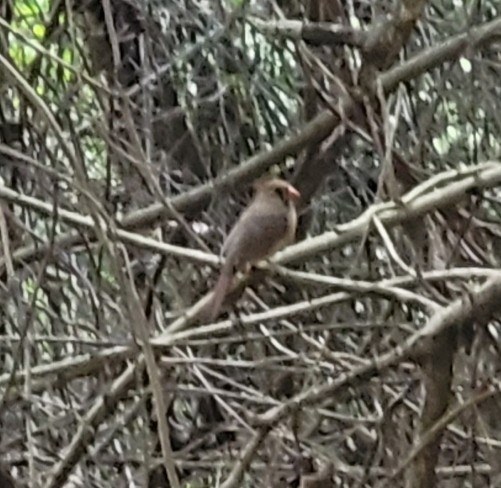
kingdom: Animalia
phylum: Chordata
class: Aves
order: Passeriformes
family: Cardinalidae
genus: Cardinalis
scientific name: Cardinalis cardinalis
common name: Northern cardinal
